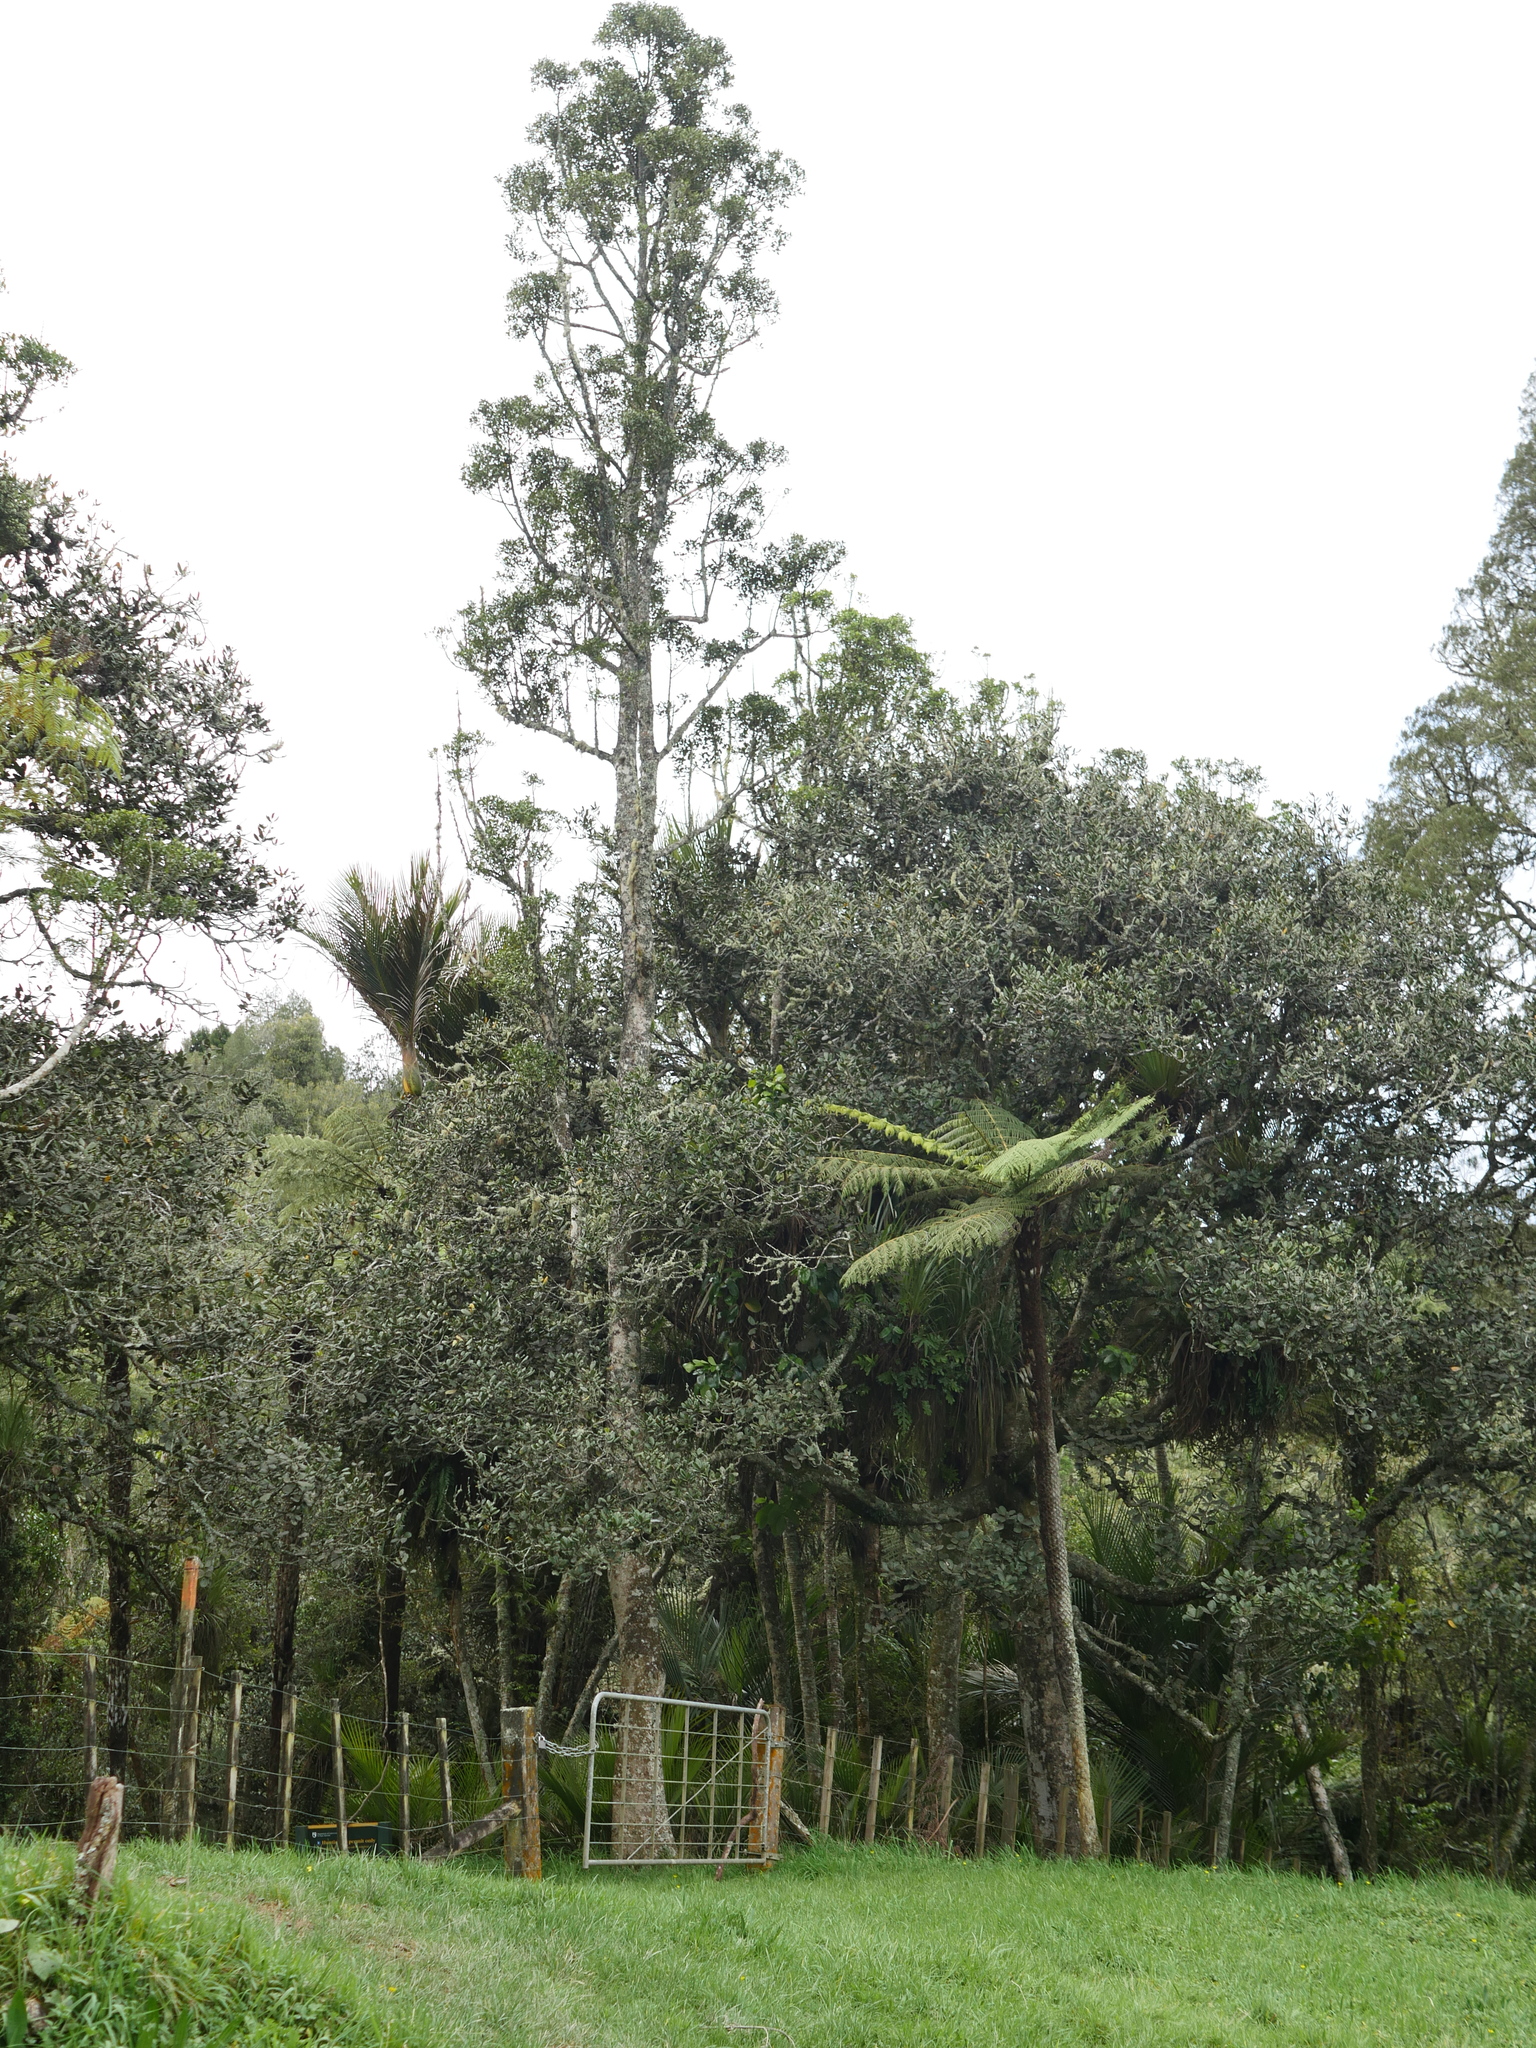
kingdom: Plantae
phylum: Tracheophyta
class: Magnoliopsida
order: Laurales
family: Atherospermataceae
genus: Laurelia
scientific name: Laurelia novae-zelandiae
